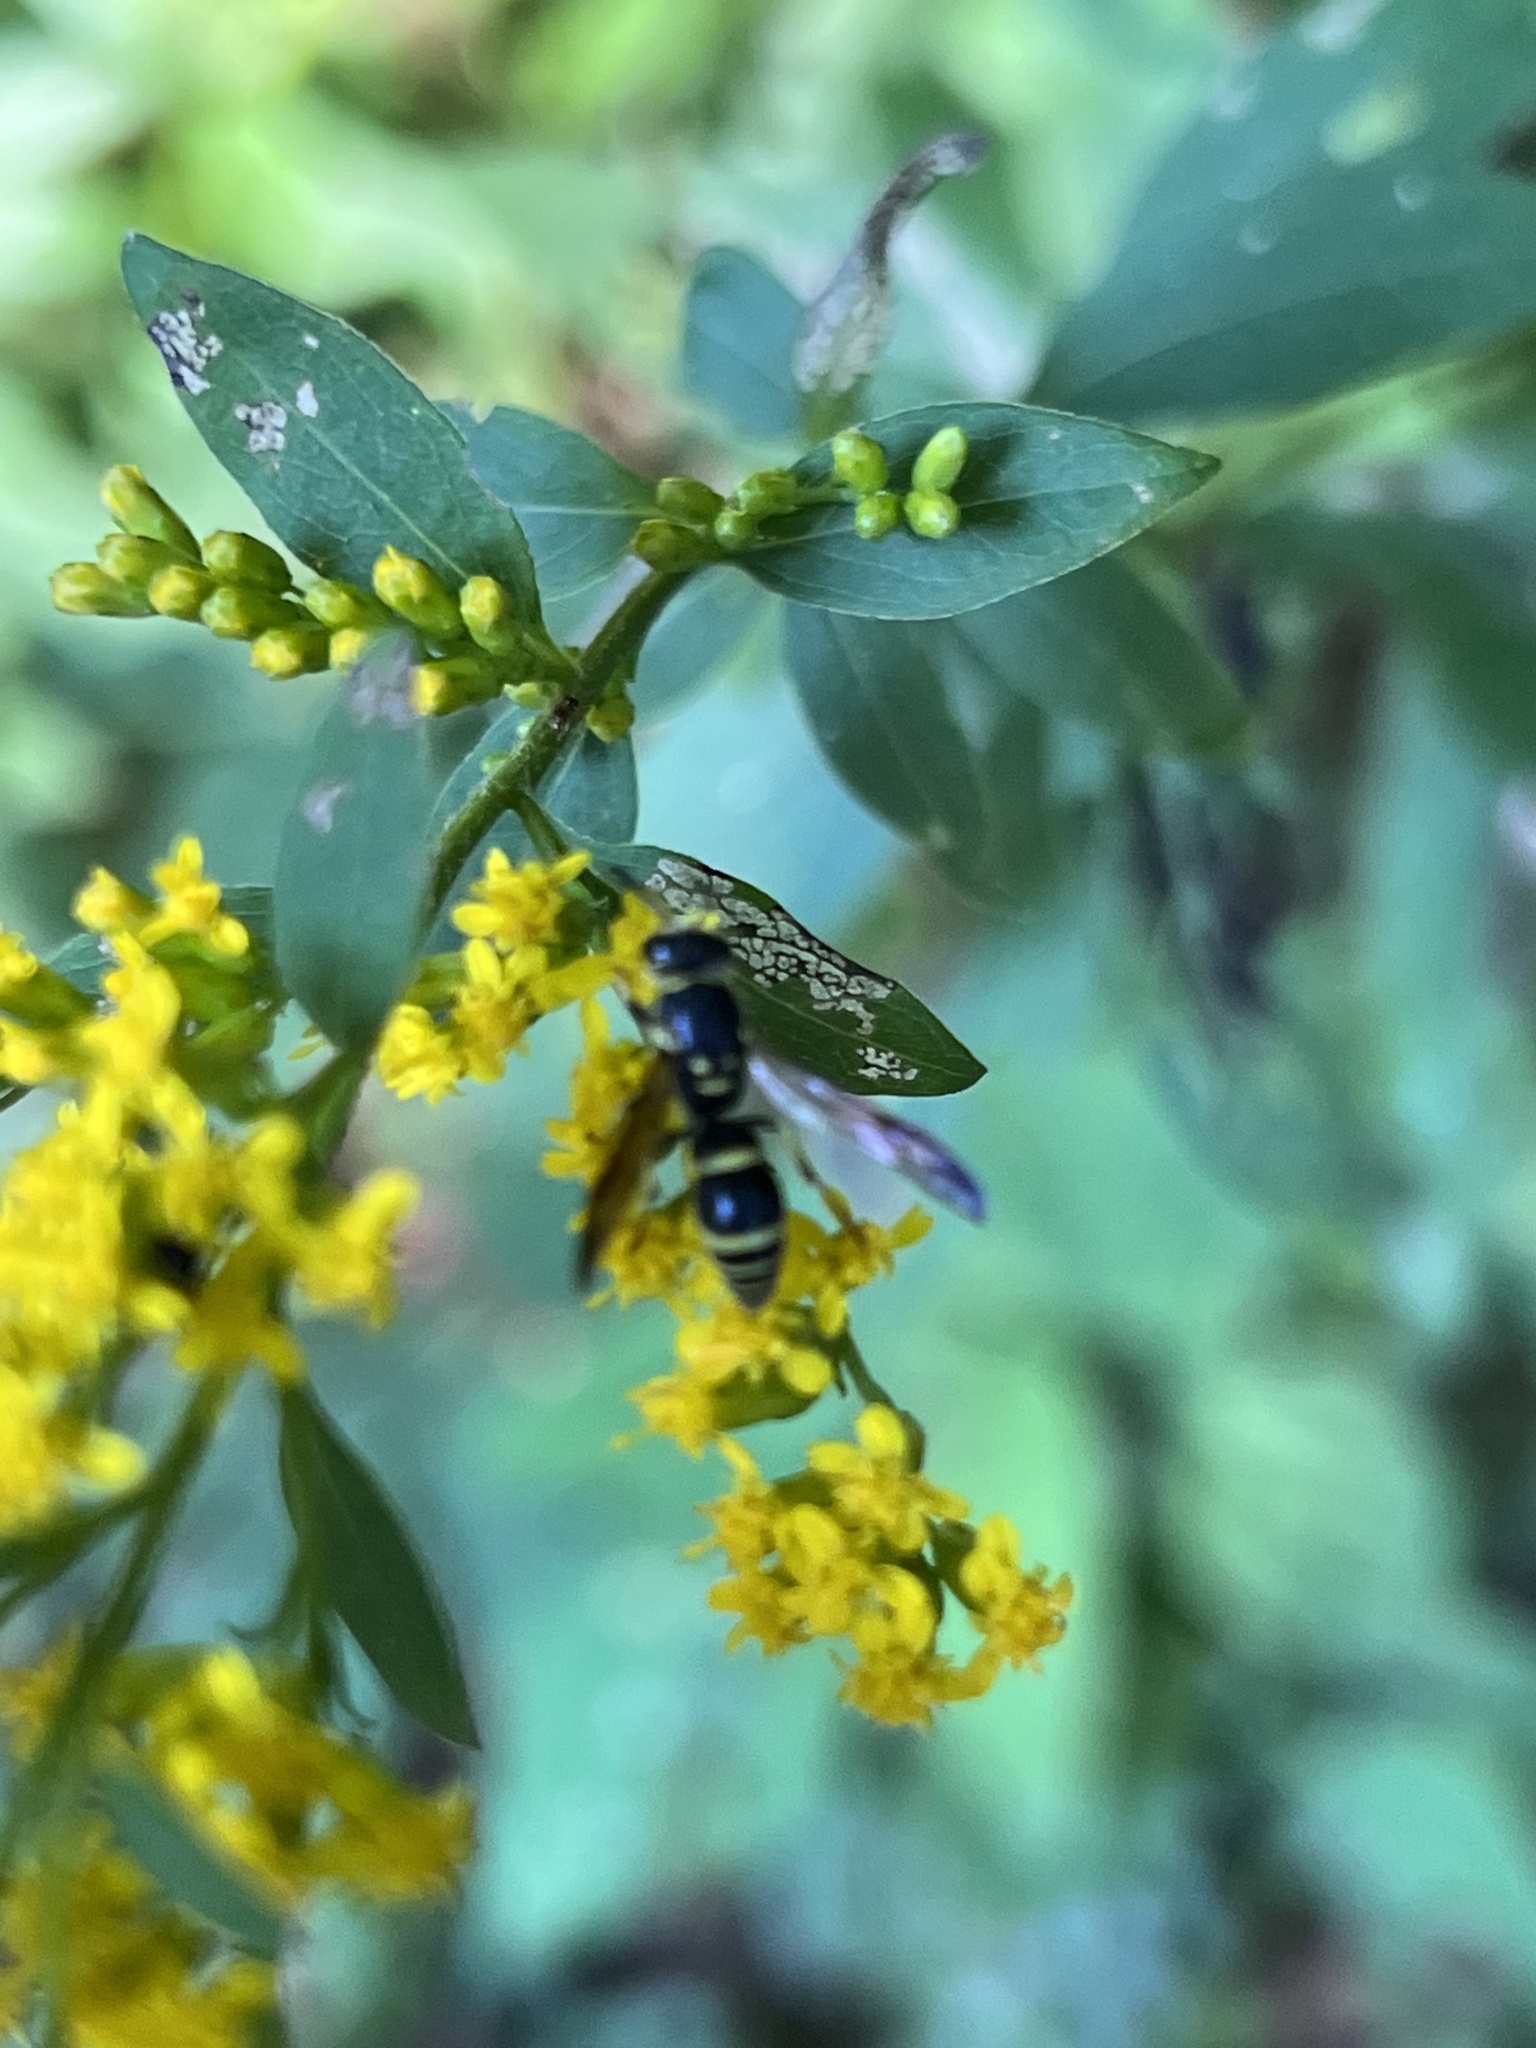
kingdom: Animalia
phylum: Arthropoda
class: Insecta
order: Hymenoptera
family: Vespidae
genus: Ancistrocerus
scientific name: Ancistrocerus adiabatus
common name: Bramble mason wasp
